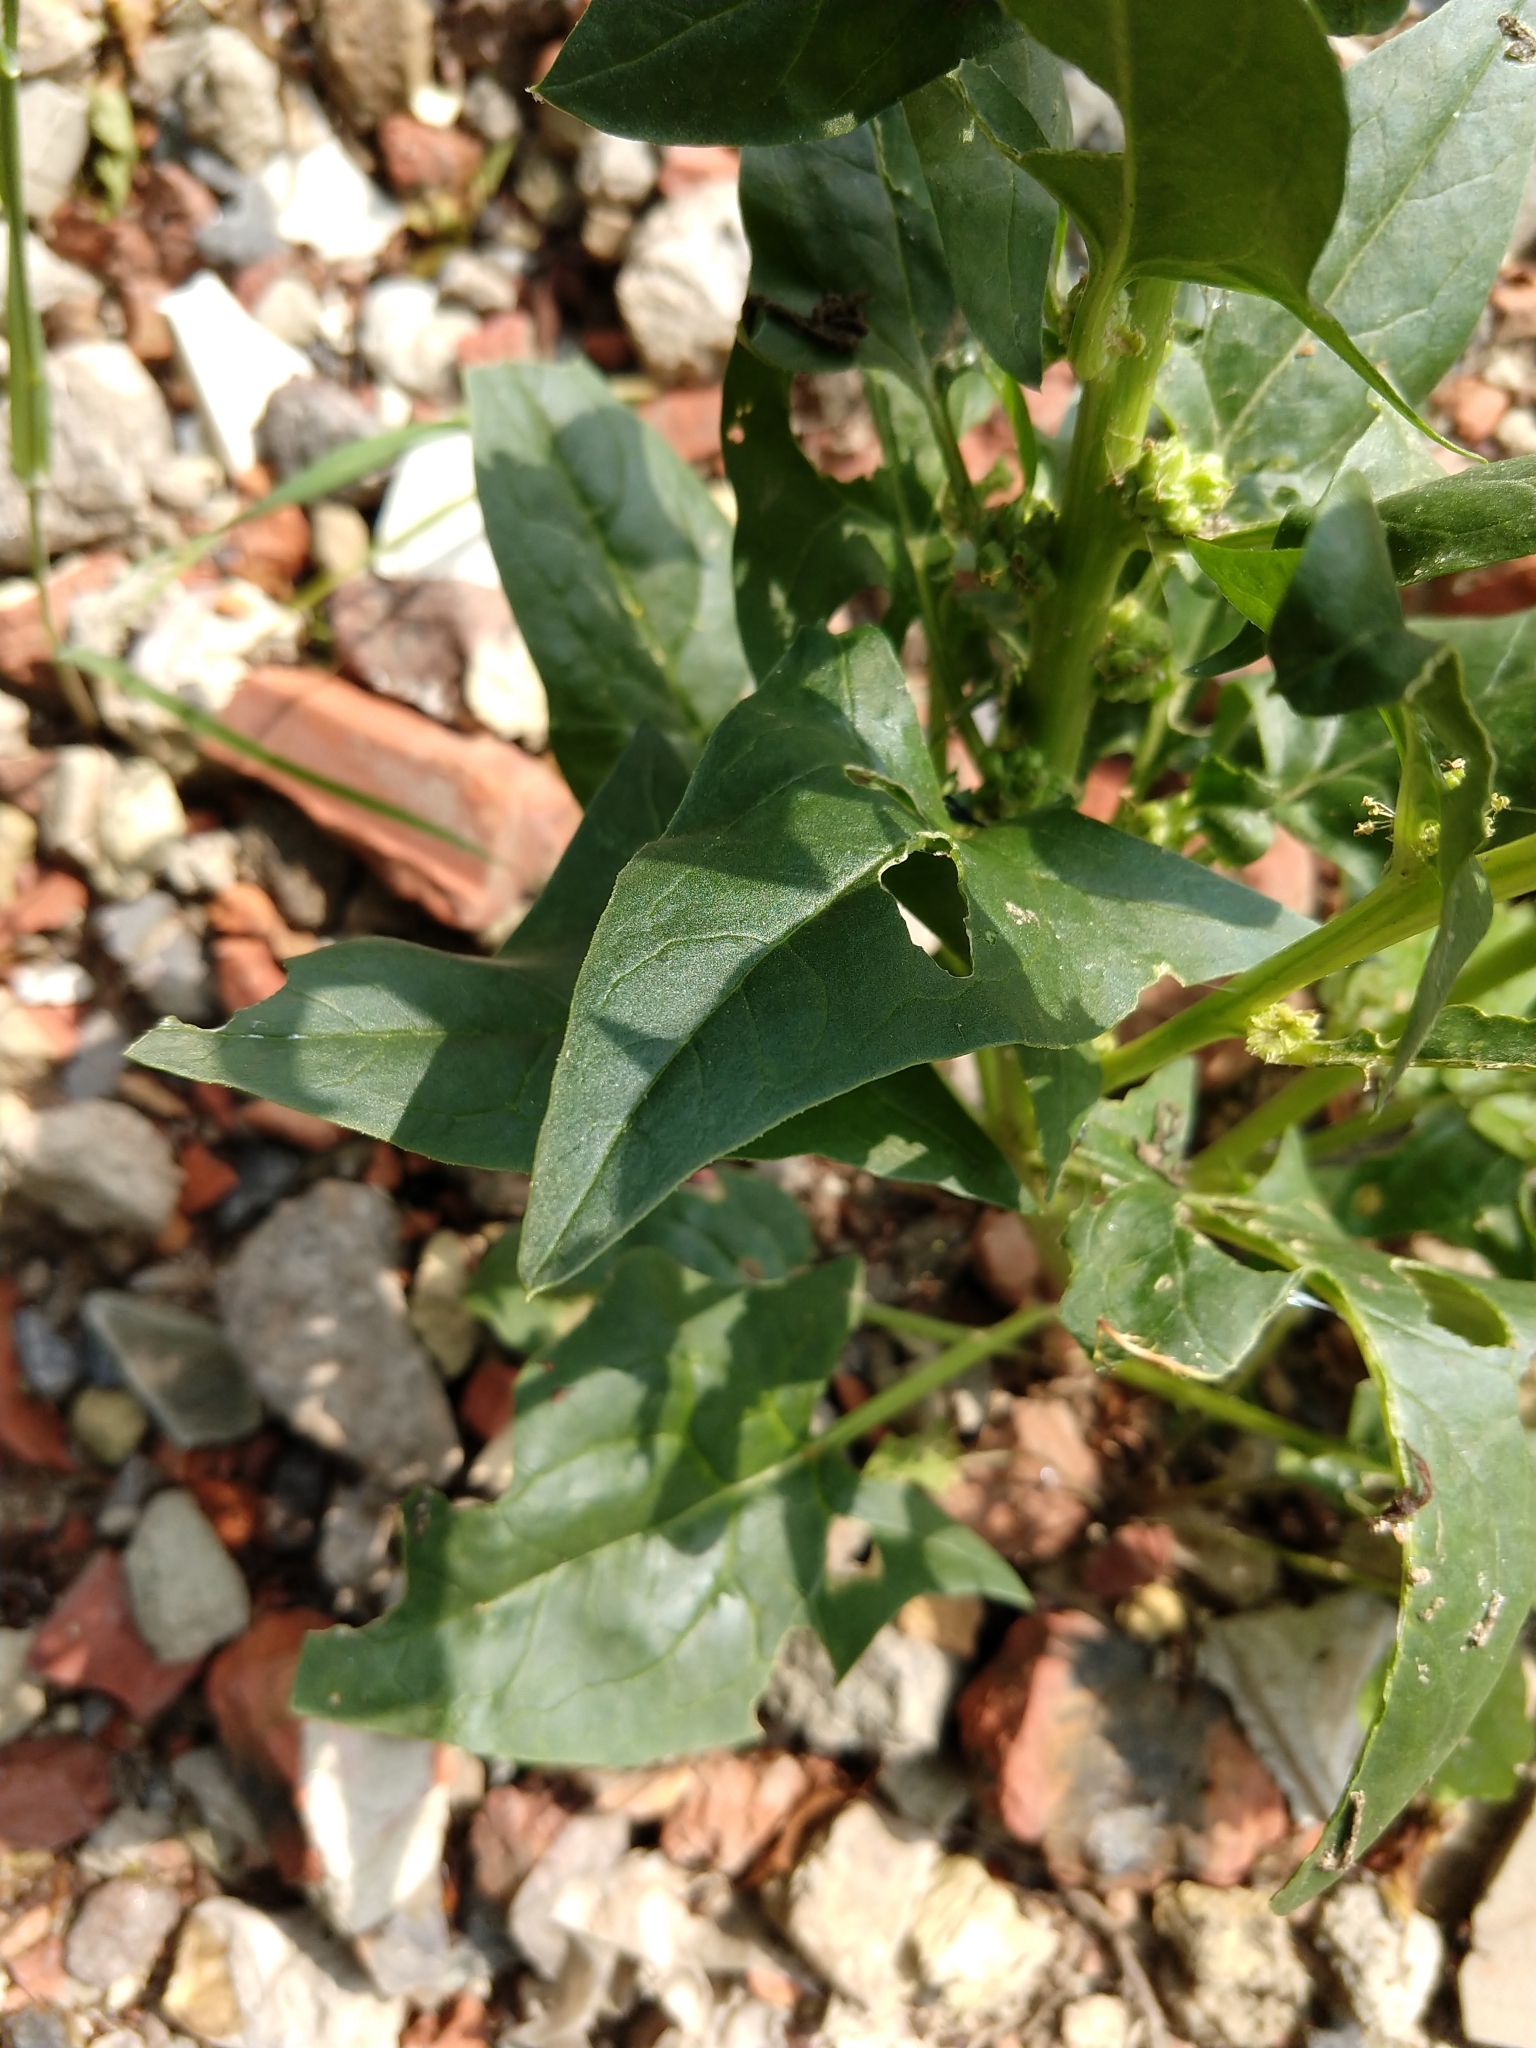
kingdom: Plantae
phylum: Tracheophyta
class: Magnoliopsida
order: Caryophyllales
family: Amaranthaceae
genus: Spinacia
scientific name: Spinacia oleracea
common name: Spinach
